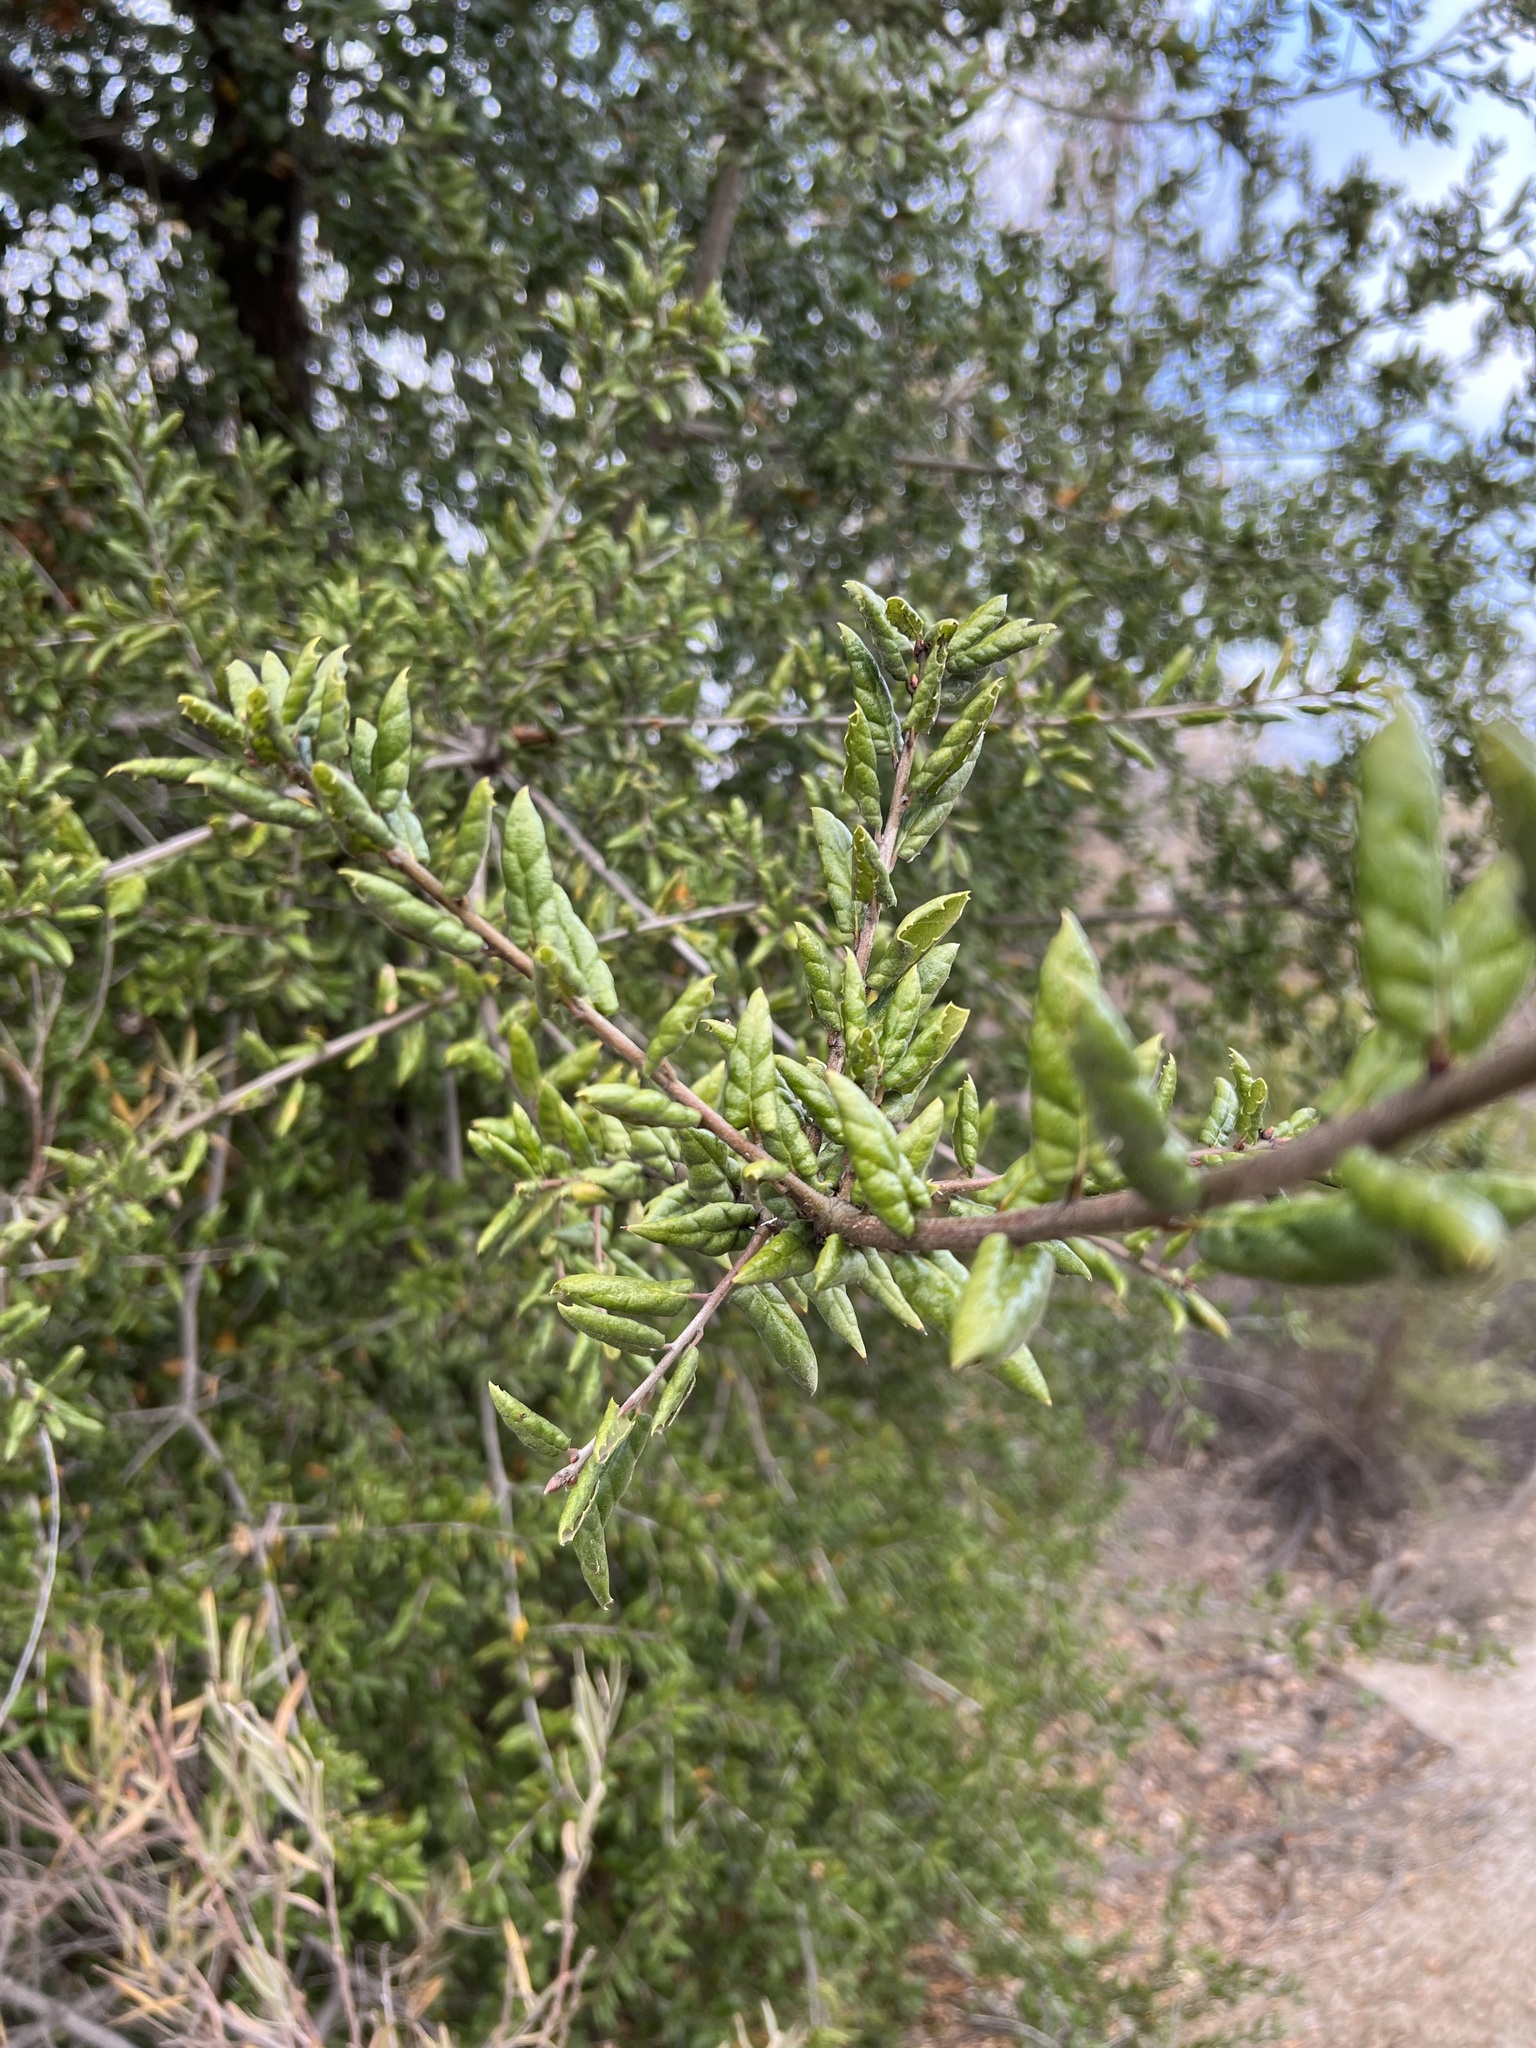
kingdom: Plantae
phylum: Tracheophyta
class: Magnoliopsida
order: Fagales
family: Fagaceae
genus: Quercus
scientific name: Quercus agrifolia
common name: California live oak
